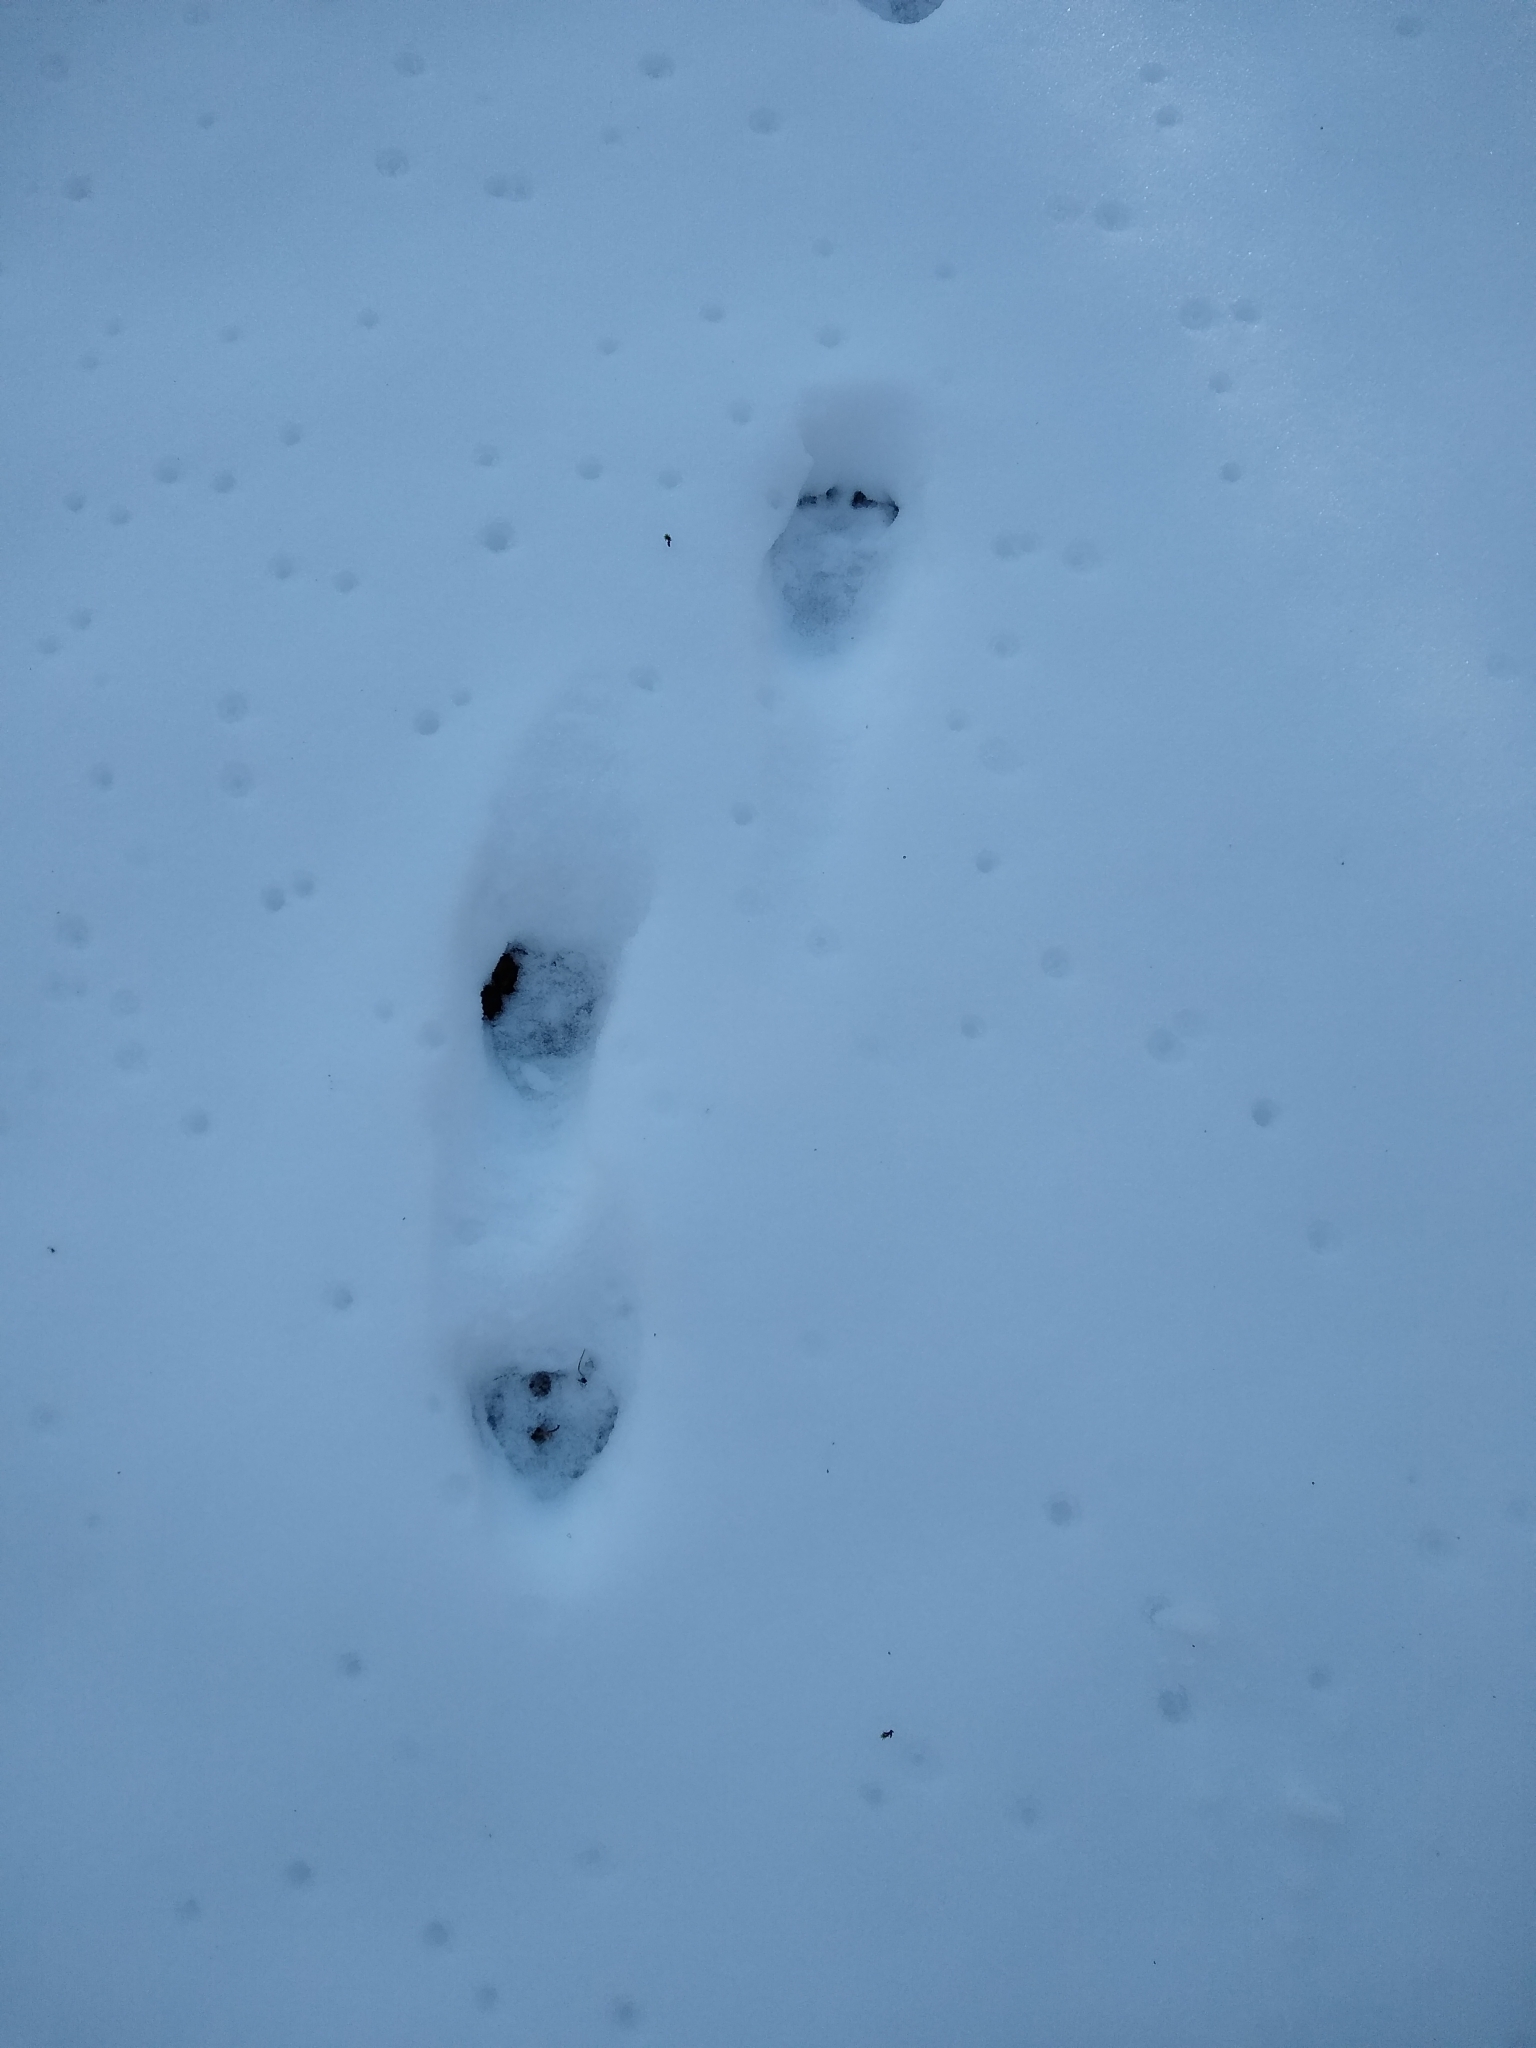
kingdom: Animalia
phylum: Chordata
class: Mammalia
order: Carnivora
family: Procyonidae
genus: Procyon
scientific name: Procyon lotor
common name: Raccoon
